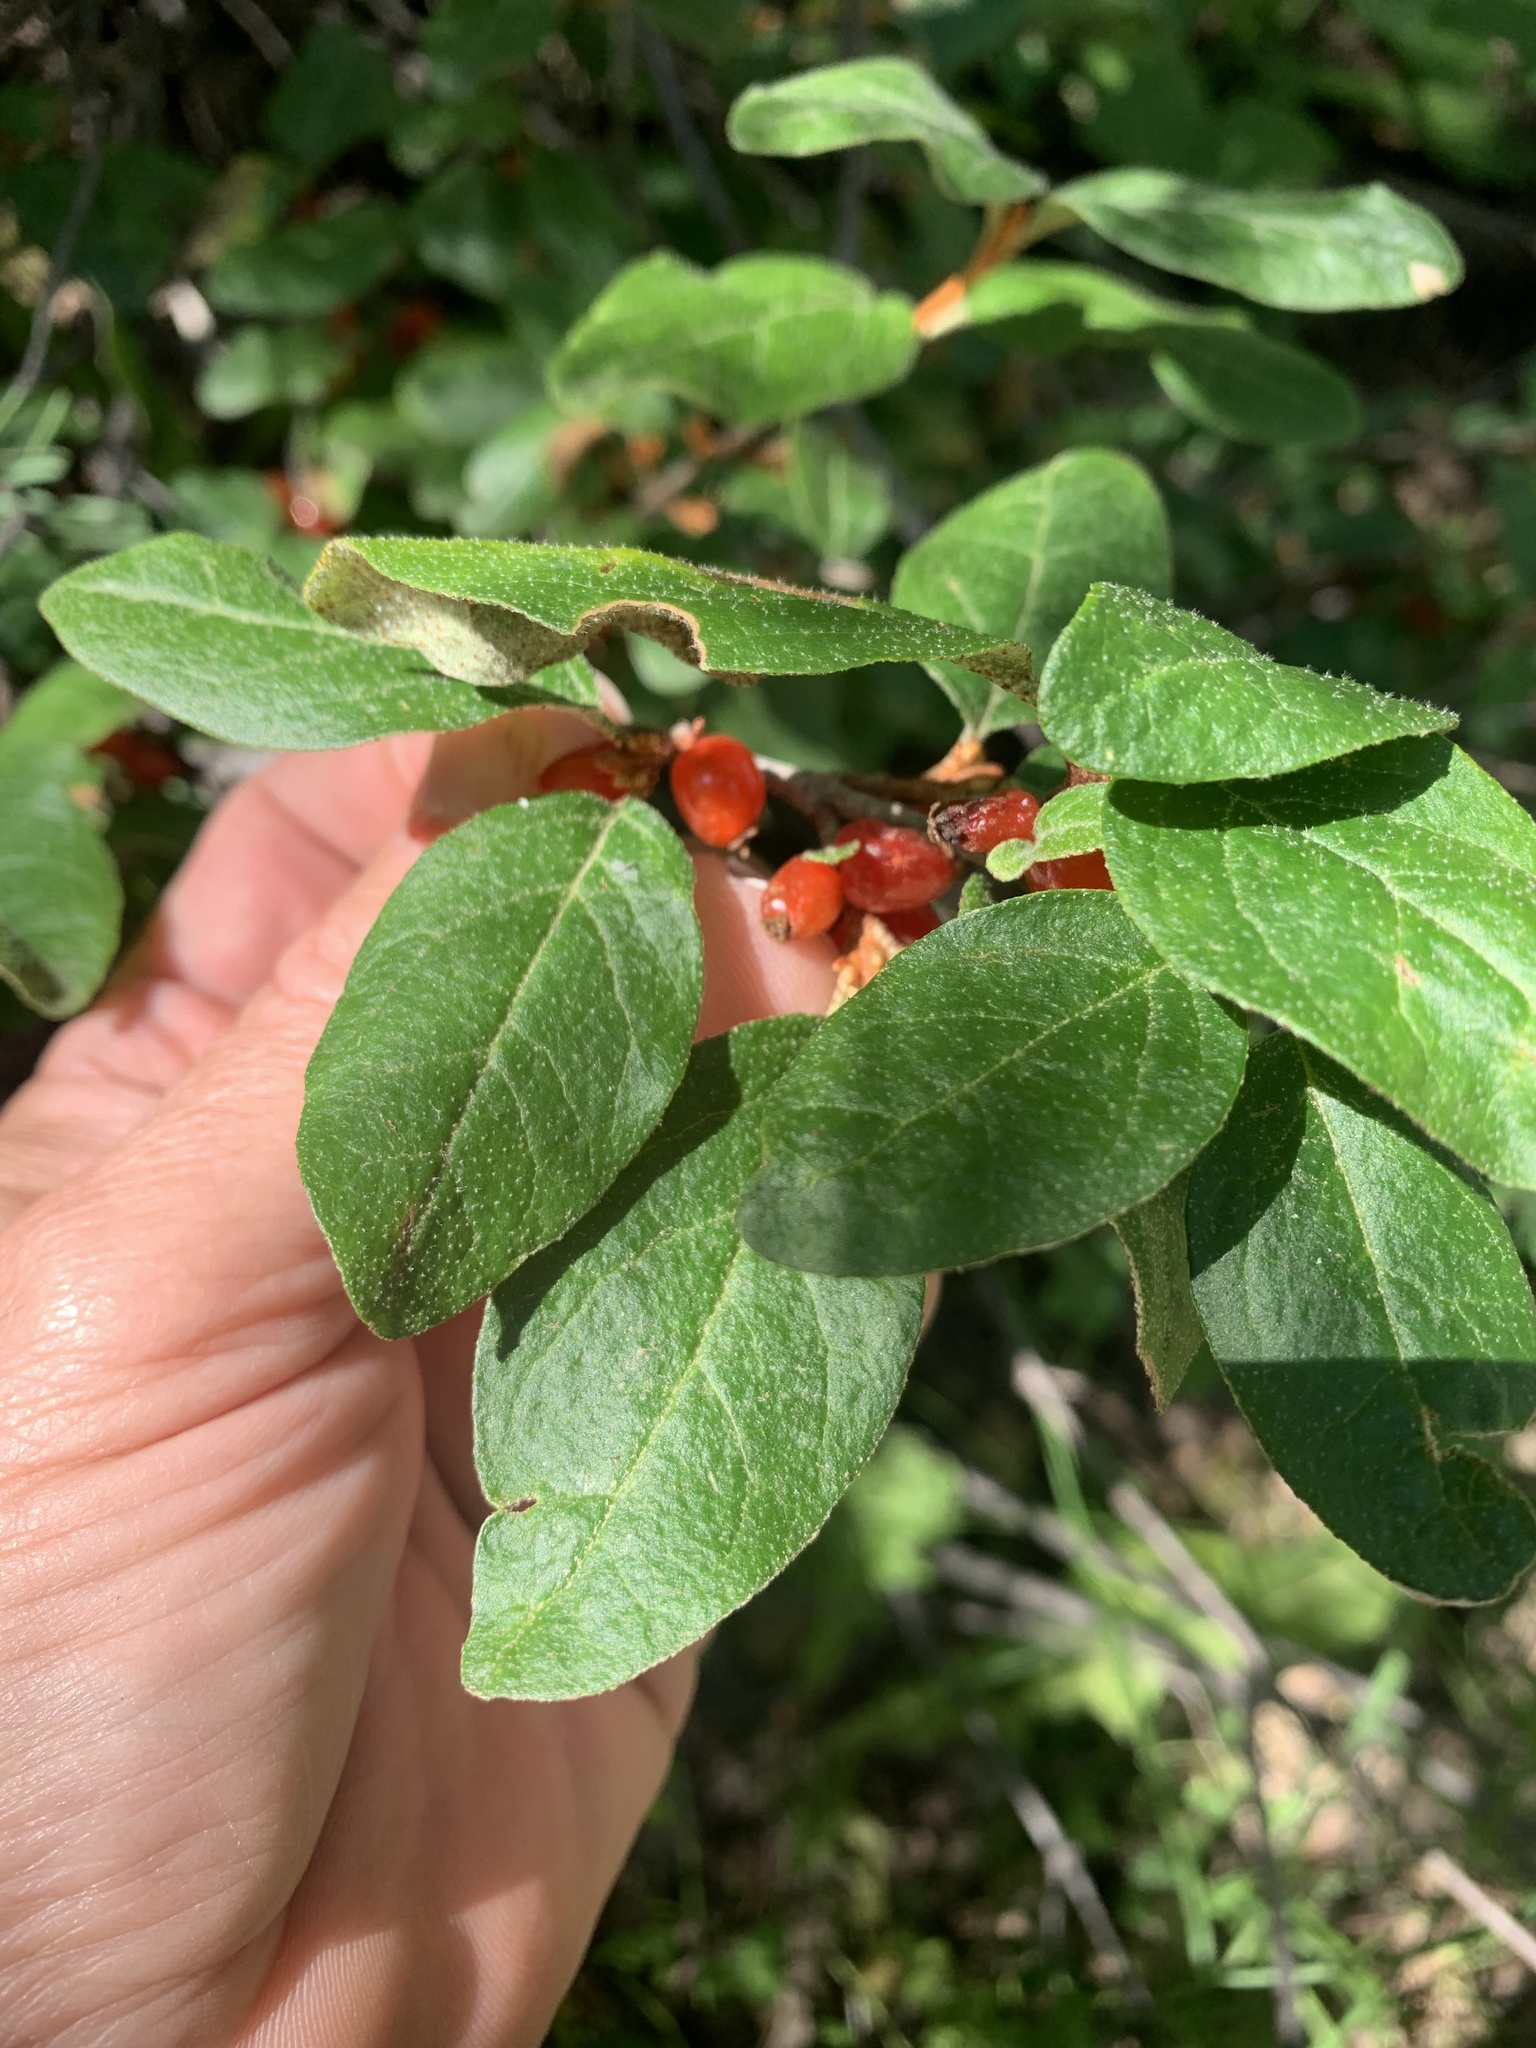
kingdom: Plantae
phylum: Tracheophyta
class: Magnoliopsida
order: Rosales
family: Elaeagnaceae
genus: Shepherdia
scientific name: Shepherdia canadensis
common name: Soapberry
